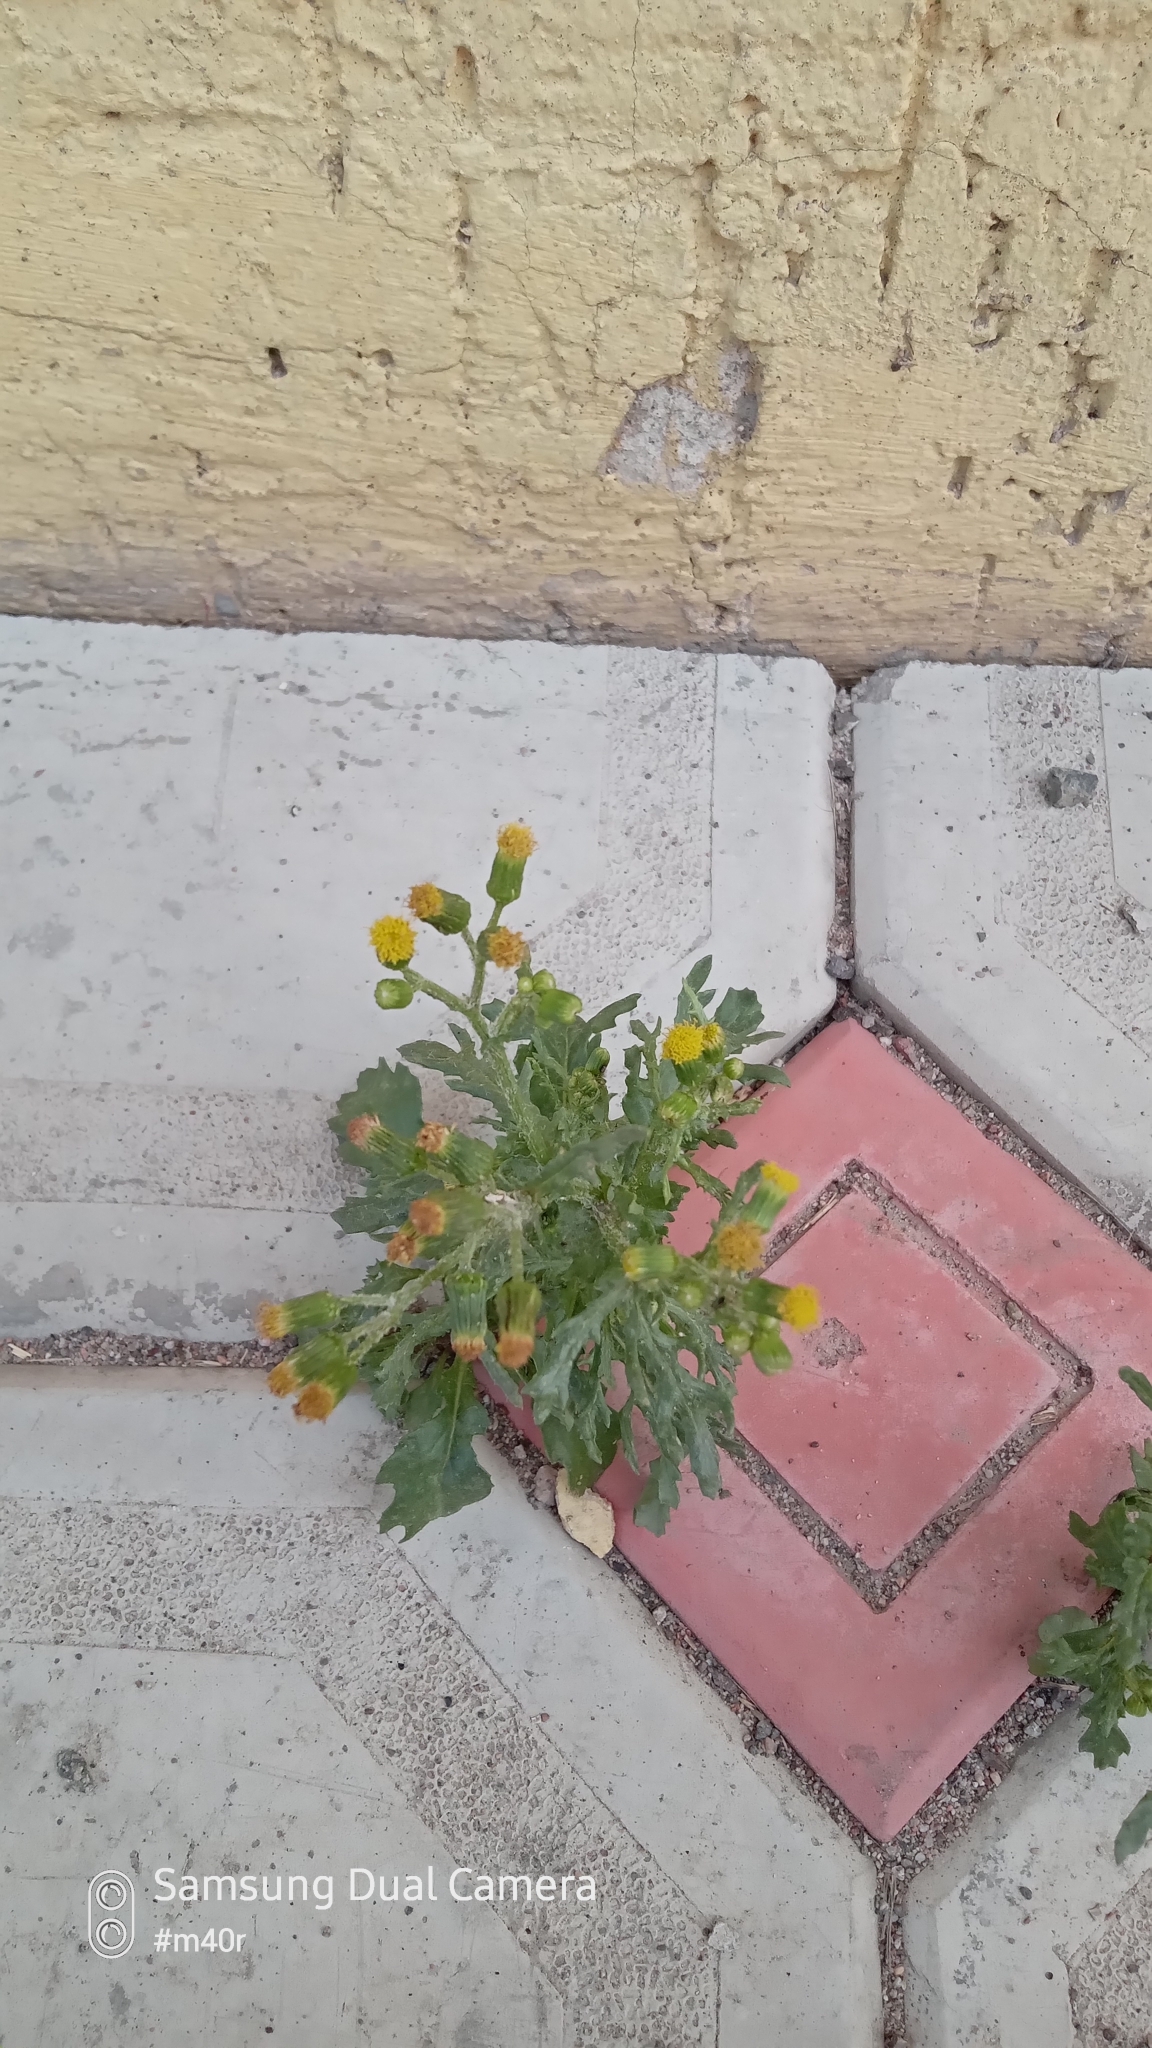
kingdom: Plantae
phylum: Tracheophyta
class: Magnoliopsida
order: Asterales
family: Asteraceae
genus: Senecio
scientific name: Senecio vulgaris
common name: Old-man-in-the-spring
